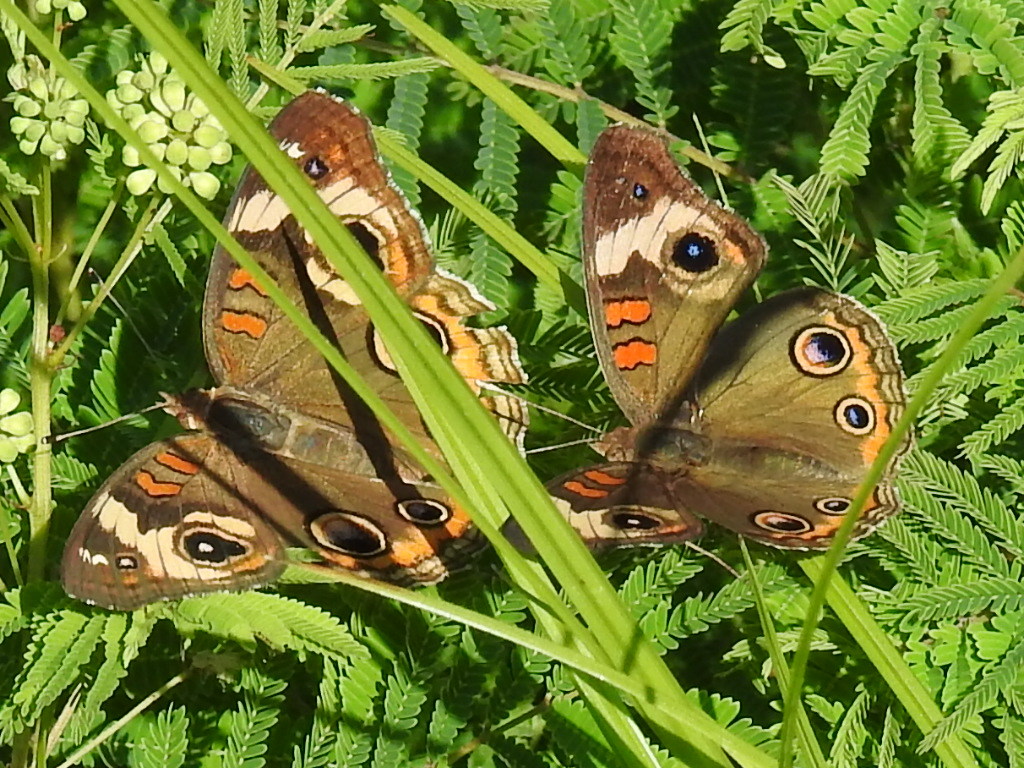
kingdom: Animalia
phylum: Arthropoda
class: Insecta
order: Lepidoptera
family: Nymphalidae
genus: Junonia
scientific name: Junonia coenia
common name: Common buckeye
